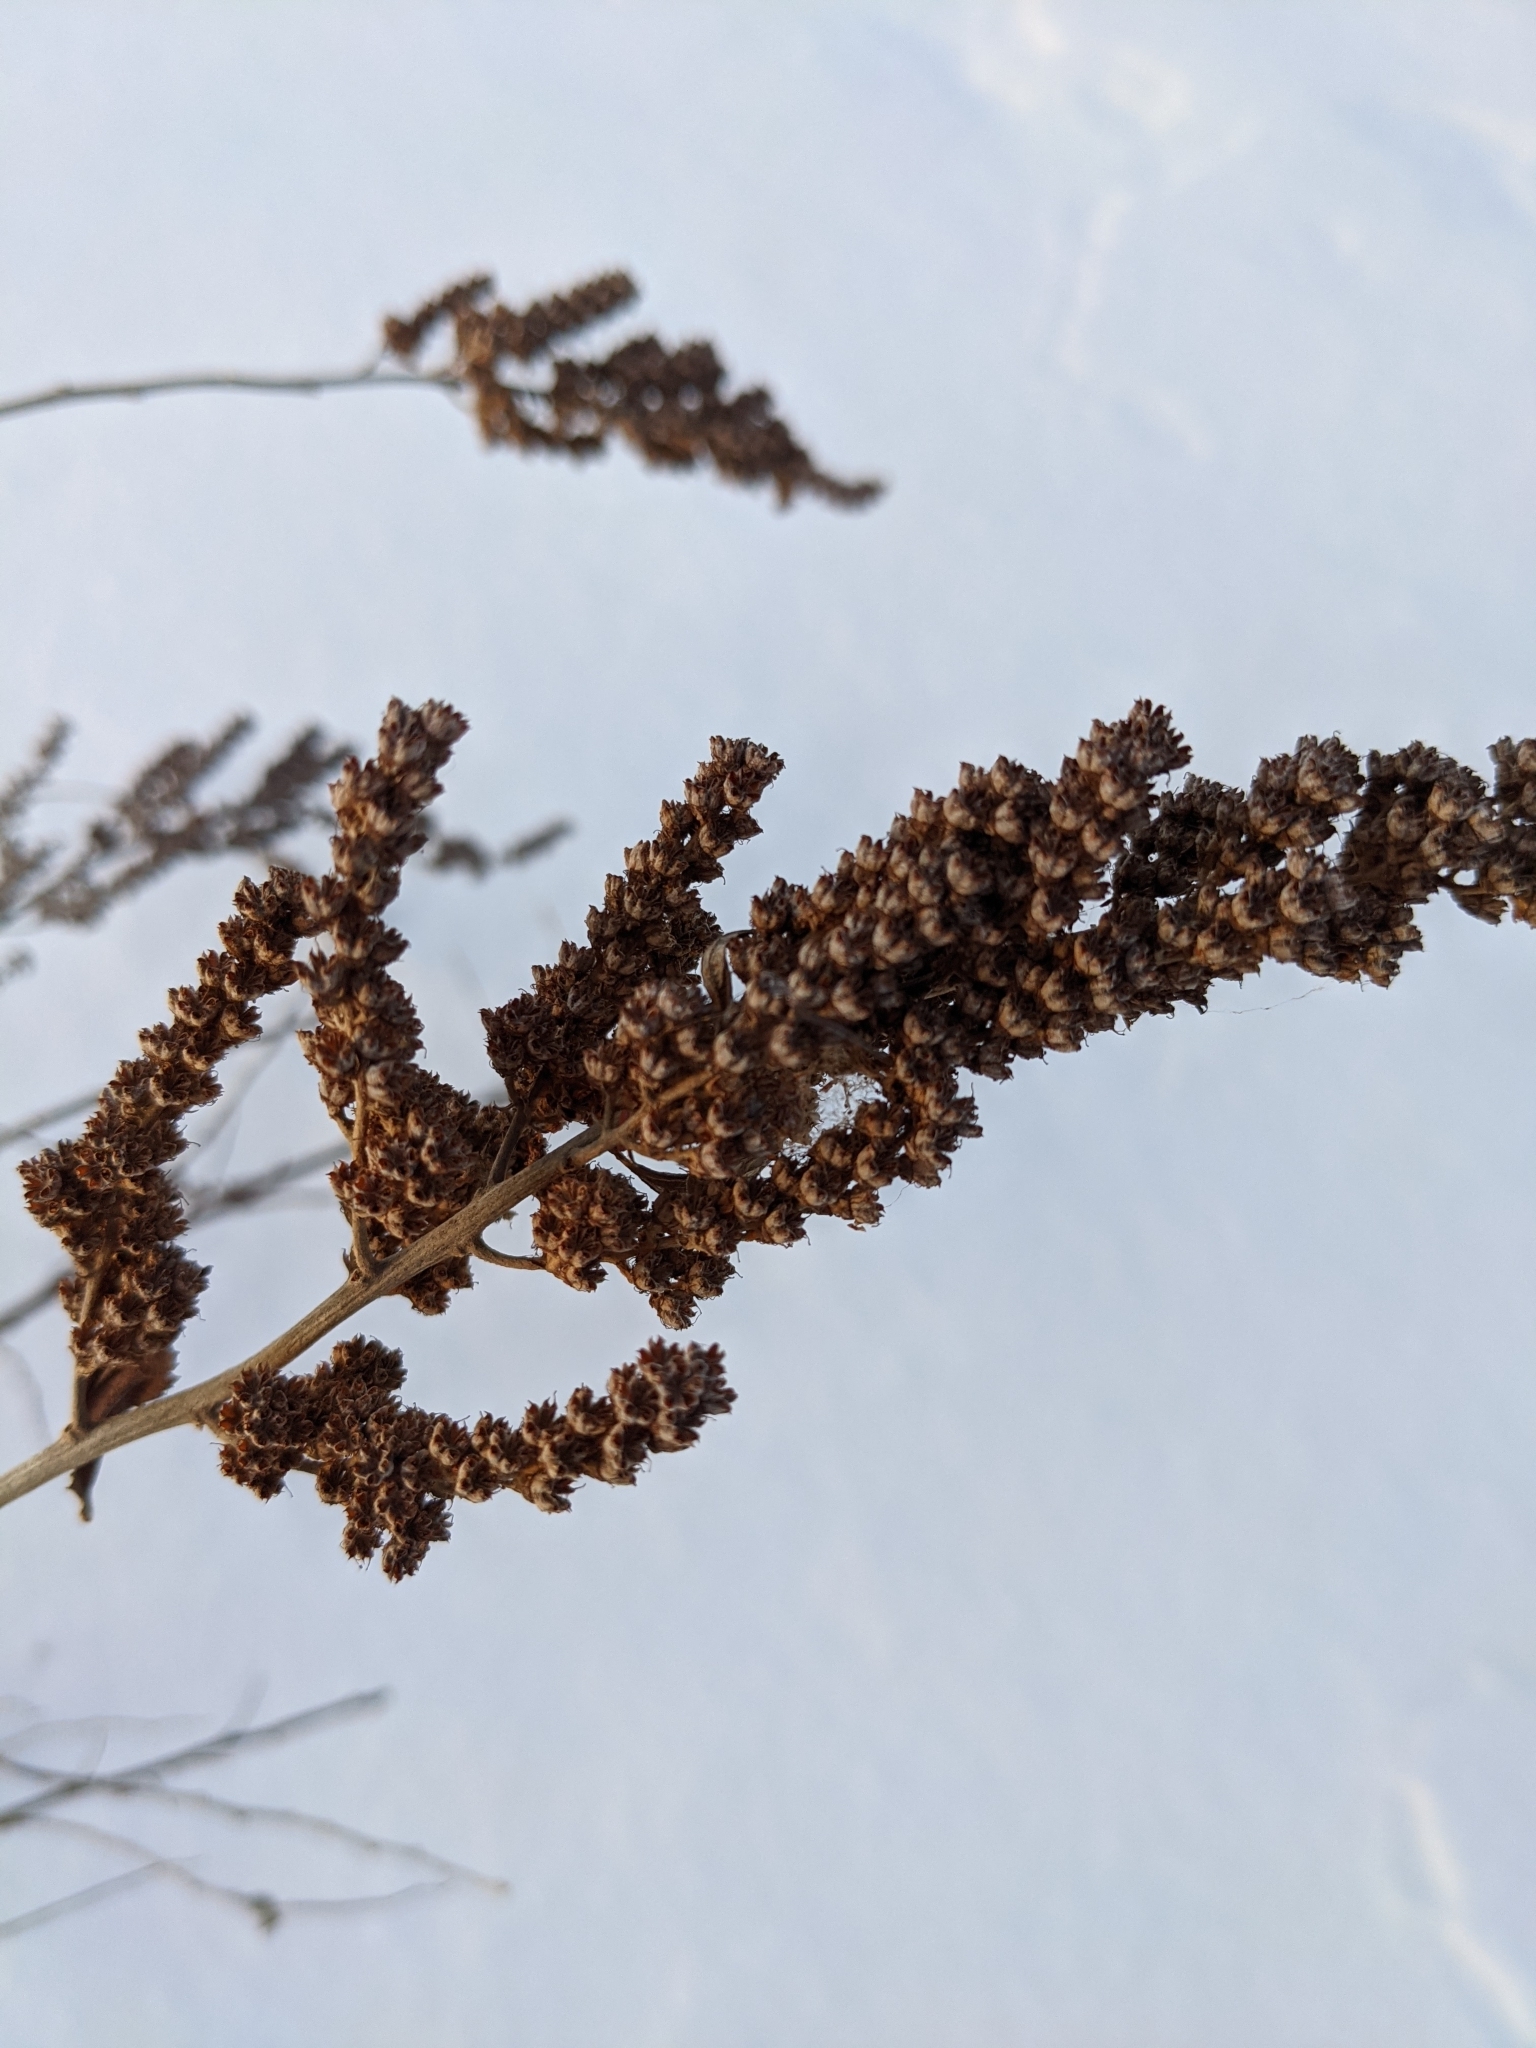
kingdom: Plantae
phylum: Tracheophyta
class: Magnoliopsida
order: Rosales
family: Rosaceae
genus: Spiraea
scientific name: Spiraea tomentosa
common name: Hardhack
